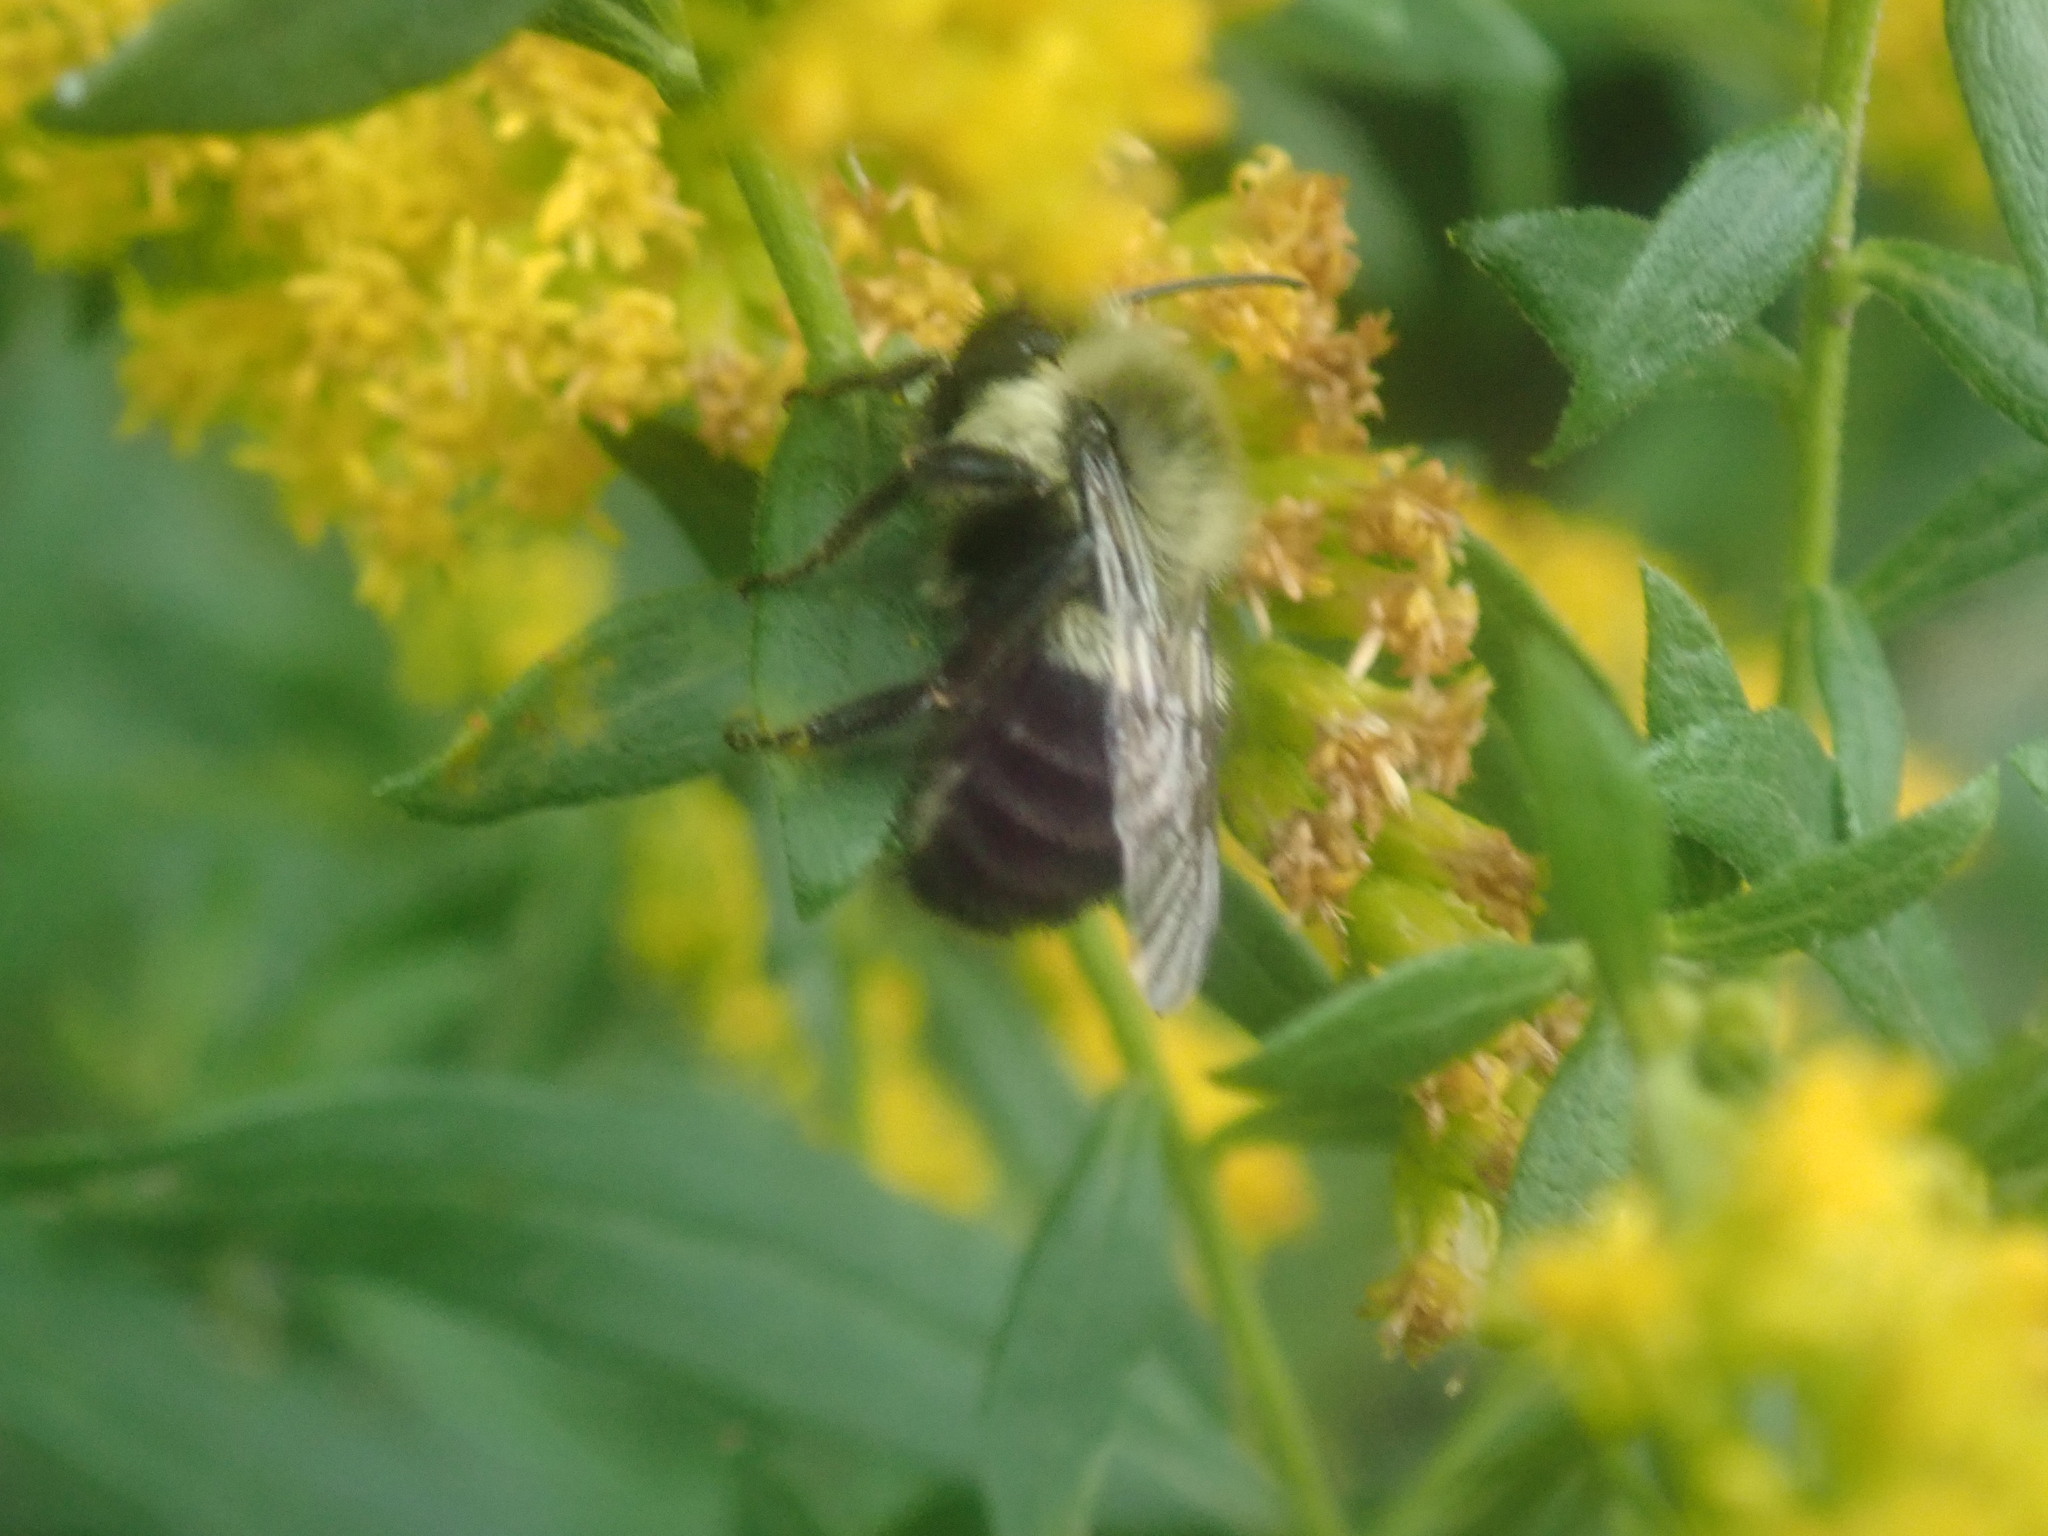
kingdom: Animalia
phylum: Arthropoda
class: Insecta
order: Hymenoptera
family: Apidae
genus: Bombus
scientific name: Bombus impatiens
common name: Common eastern bumble bee
